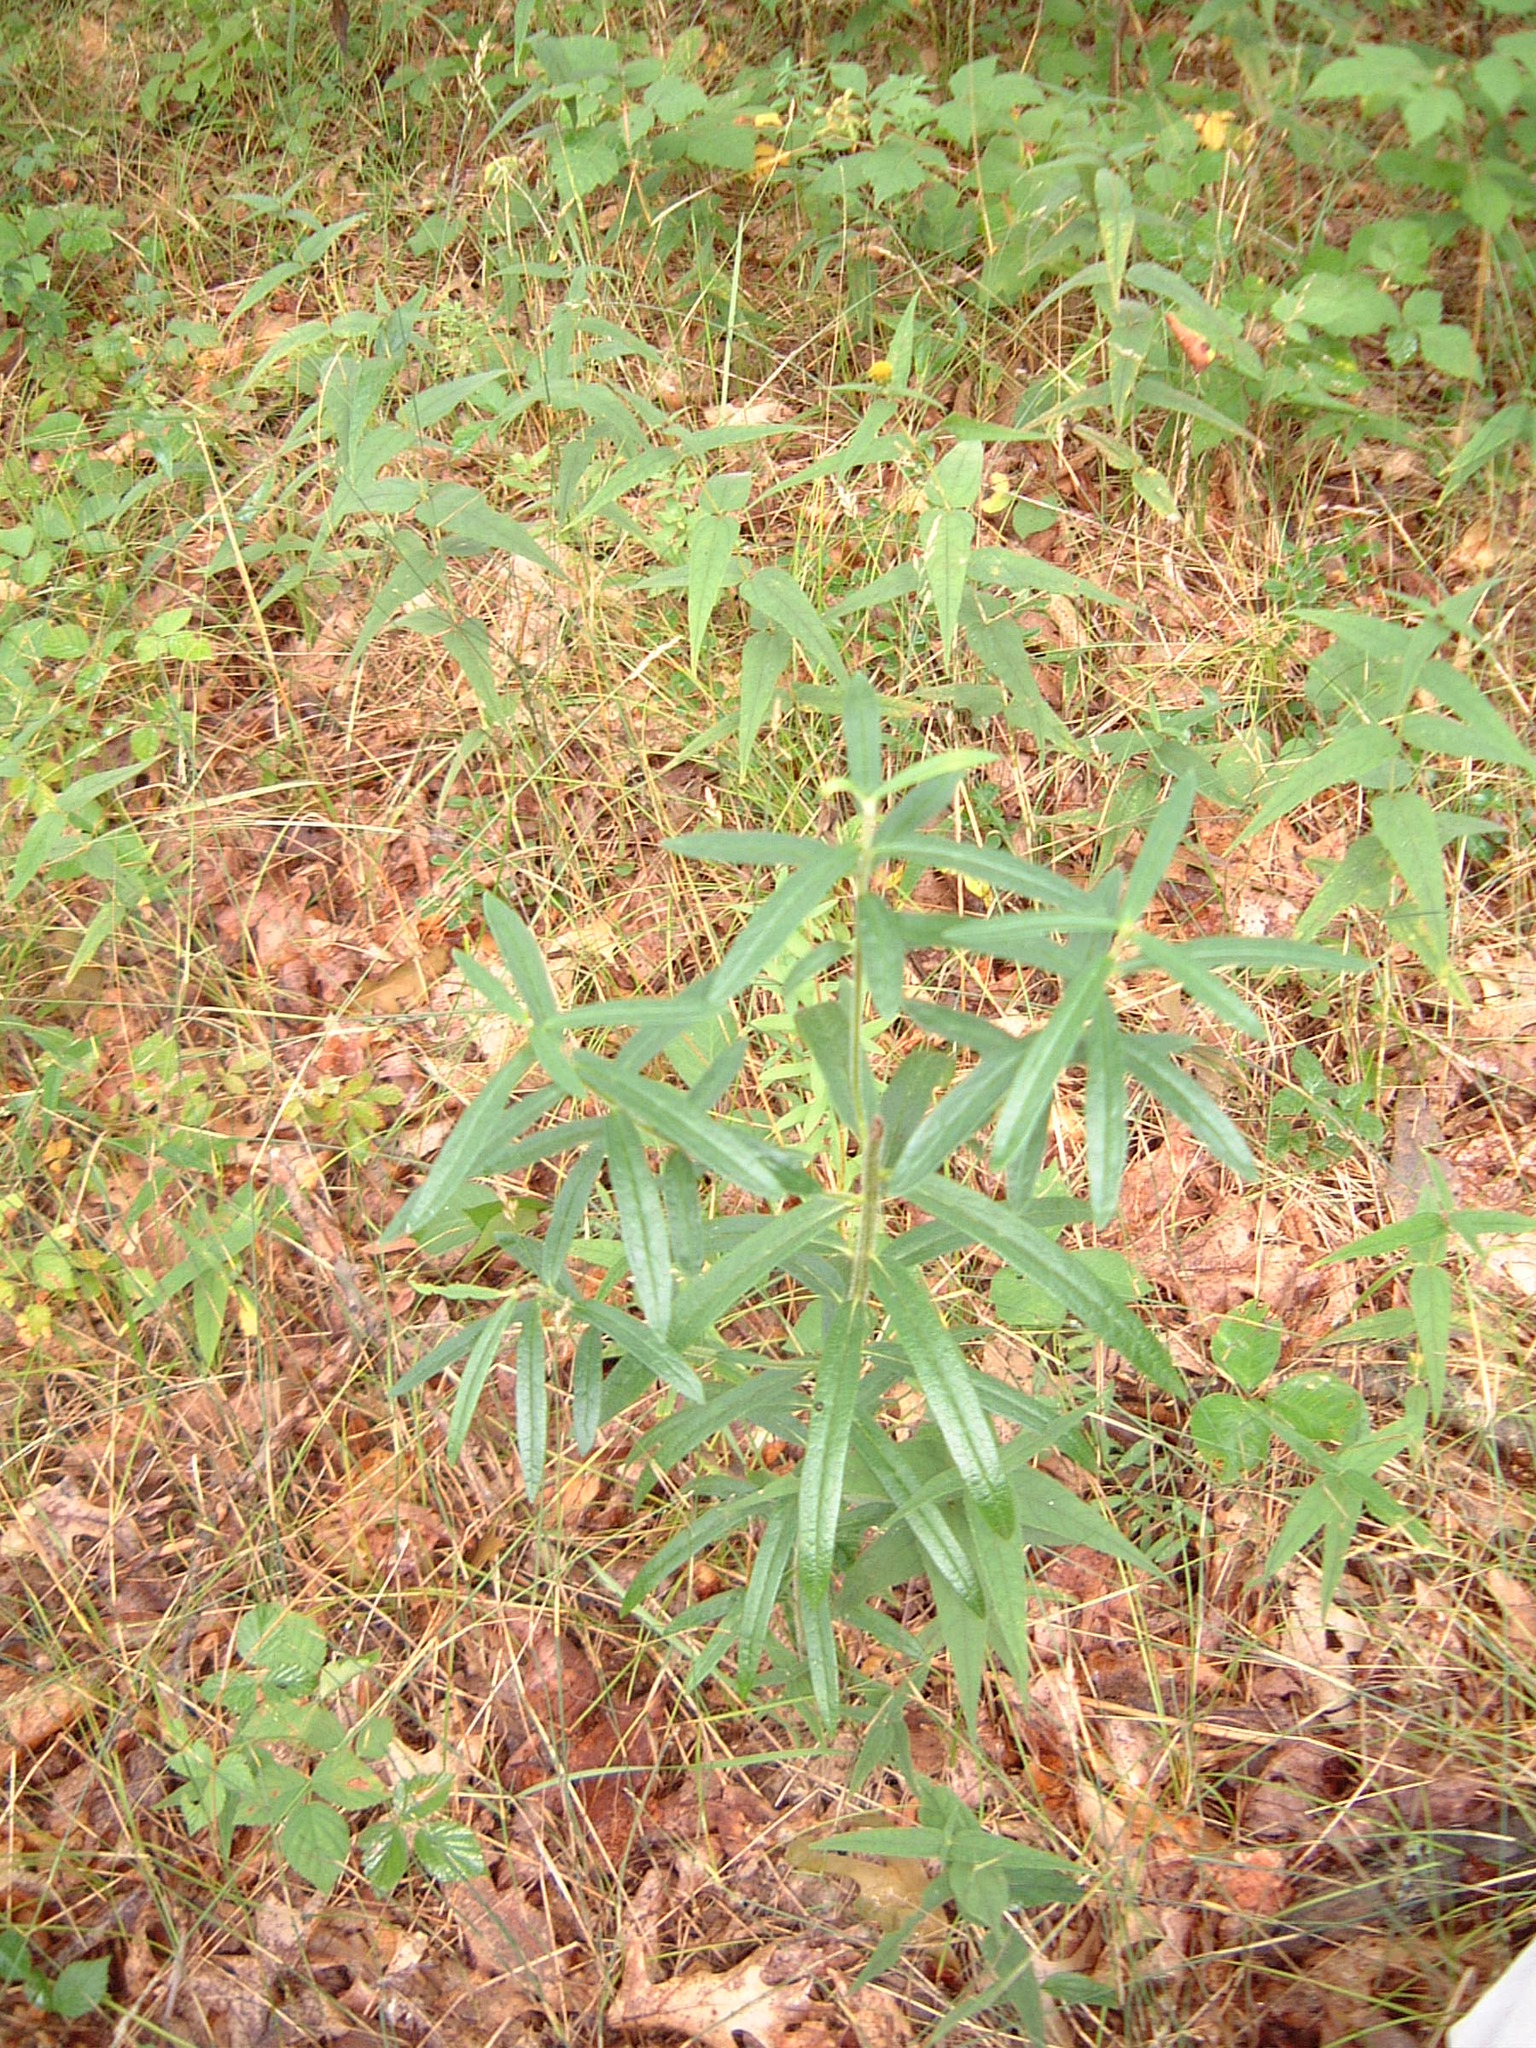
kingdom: Plantae
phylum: Tracheophyta
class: Magnoliopsida
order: Gentianales
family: Apocynaceae
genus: Asclepias
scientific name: Asclepias tuberosa
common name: Butterfly milkweed
